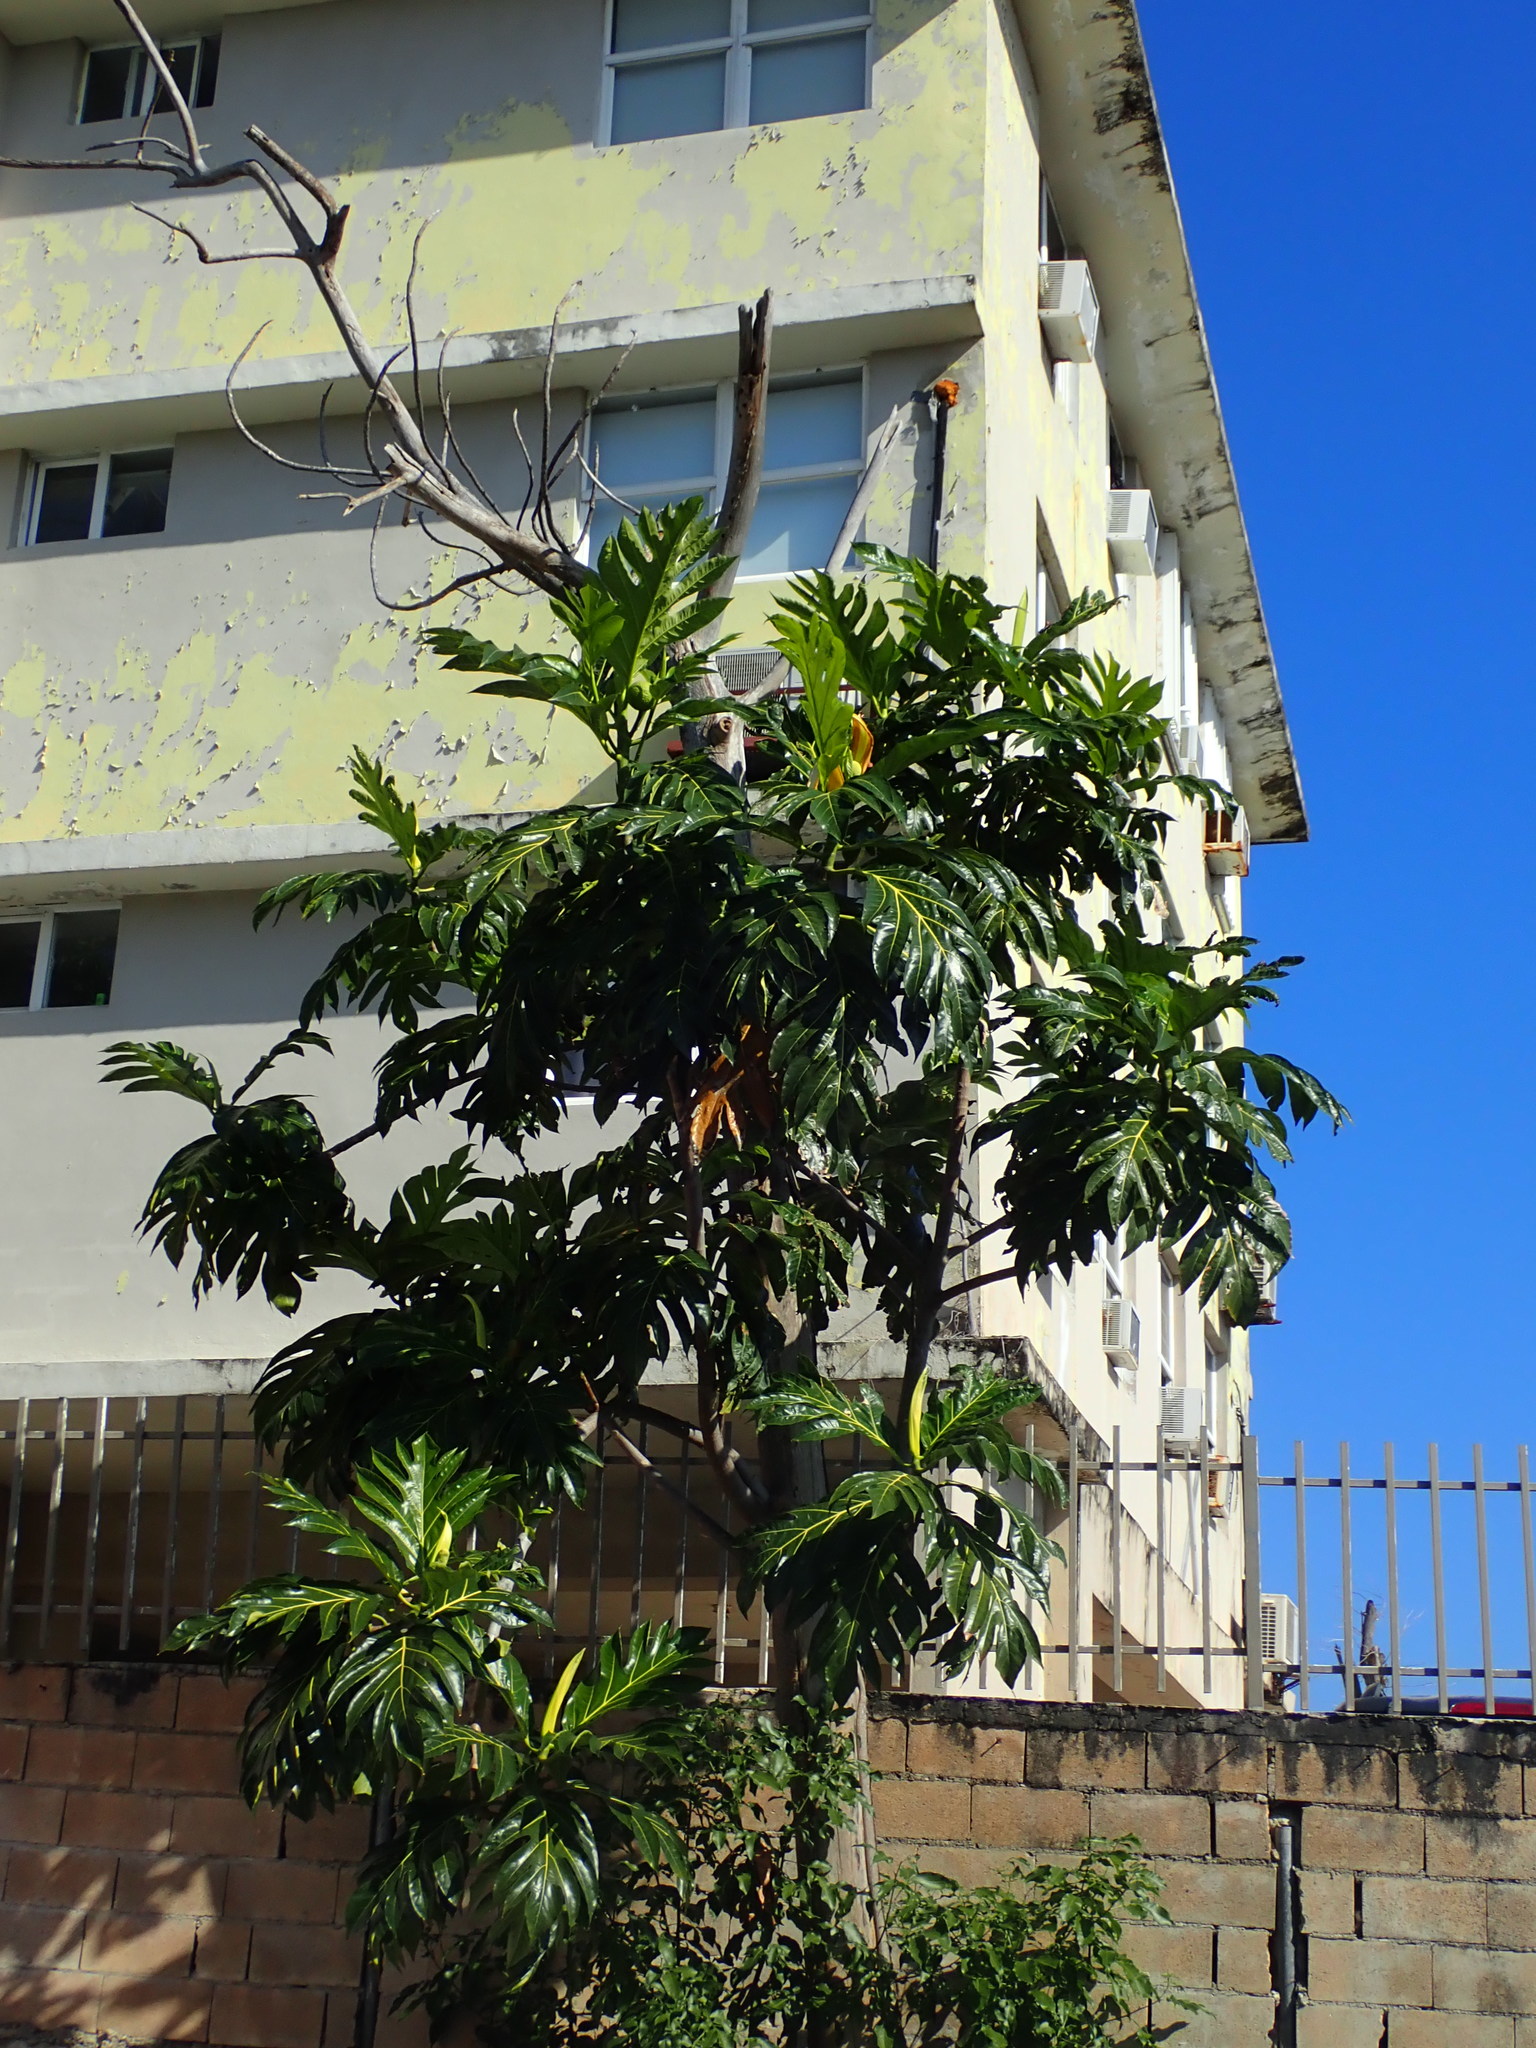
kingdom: Plantae
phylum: Tracheophyta
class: Magnoliopsida
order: Rosales
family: Moraceae
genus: Artocarpus
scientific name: Artocarpus altilis
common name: Breadfruit
